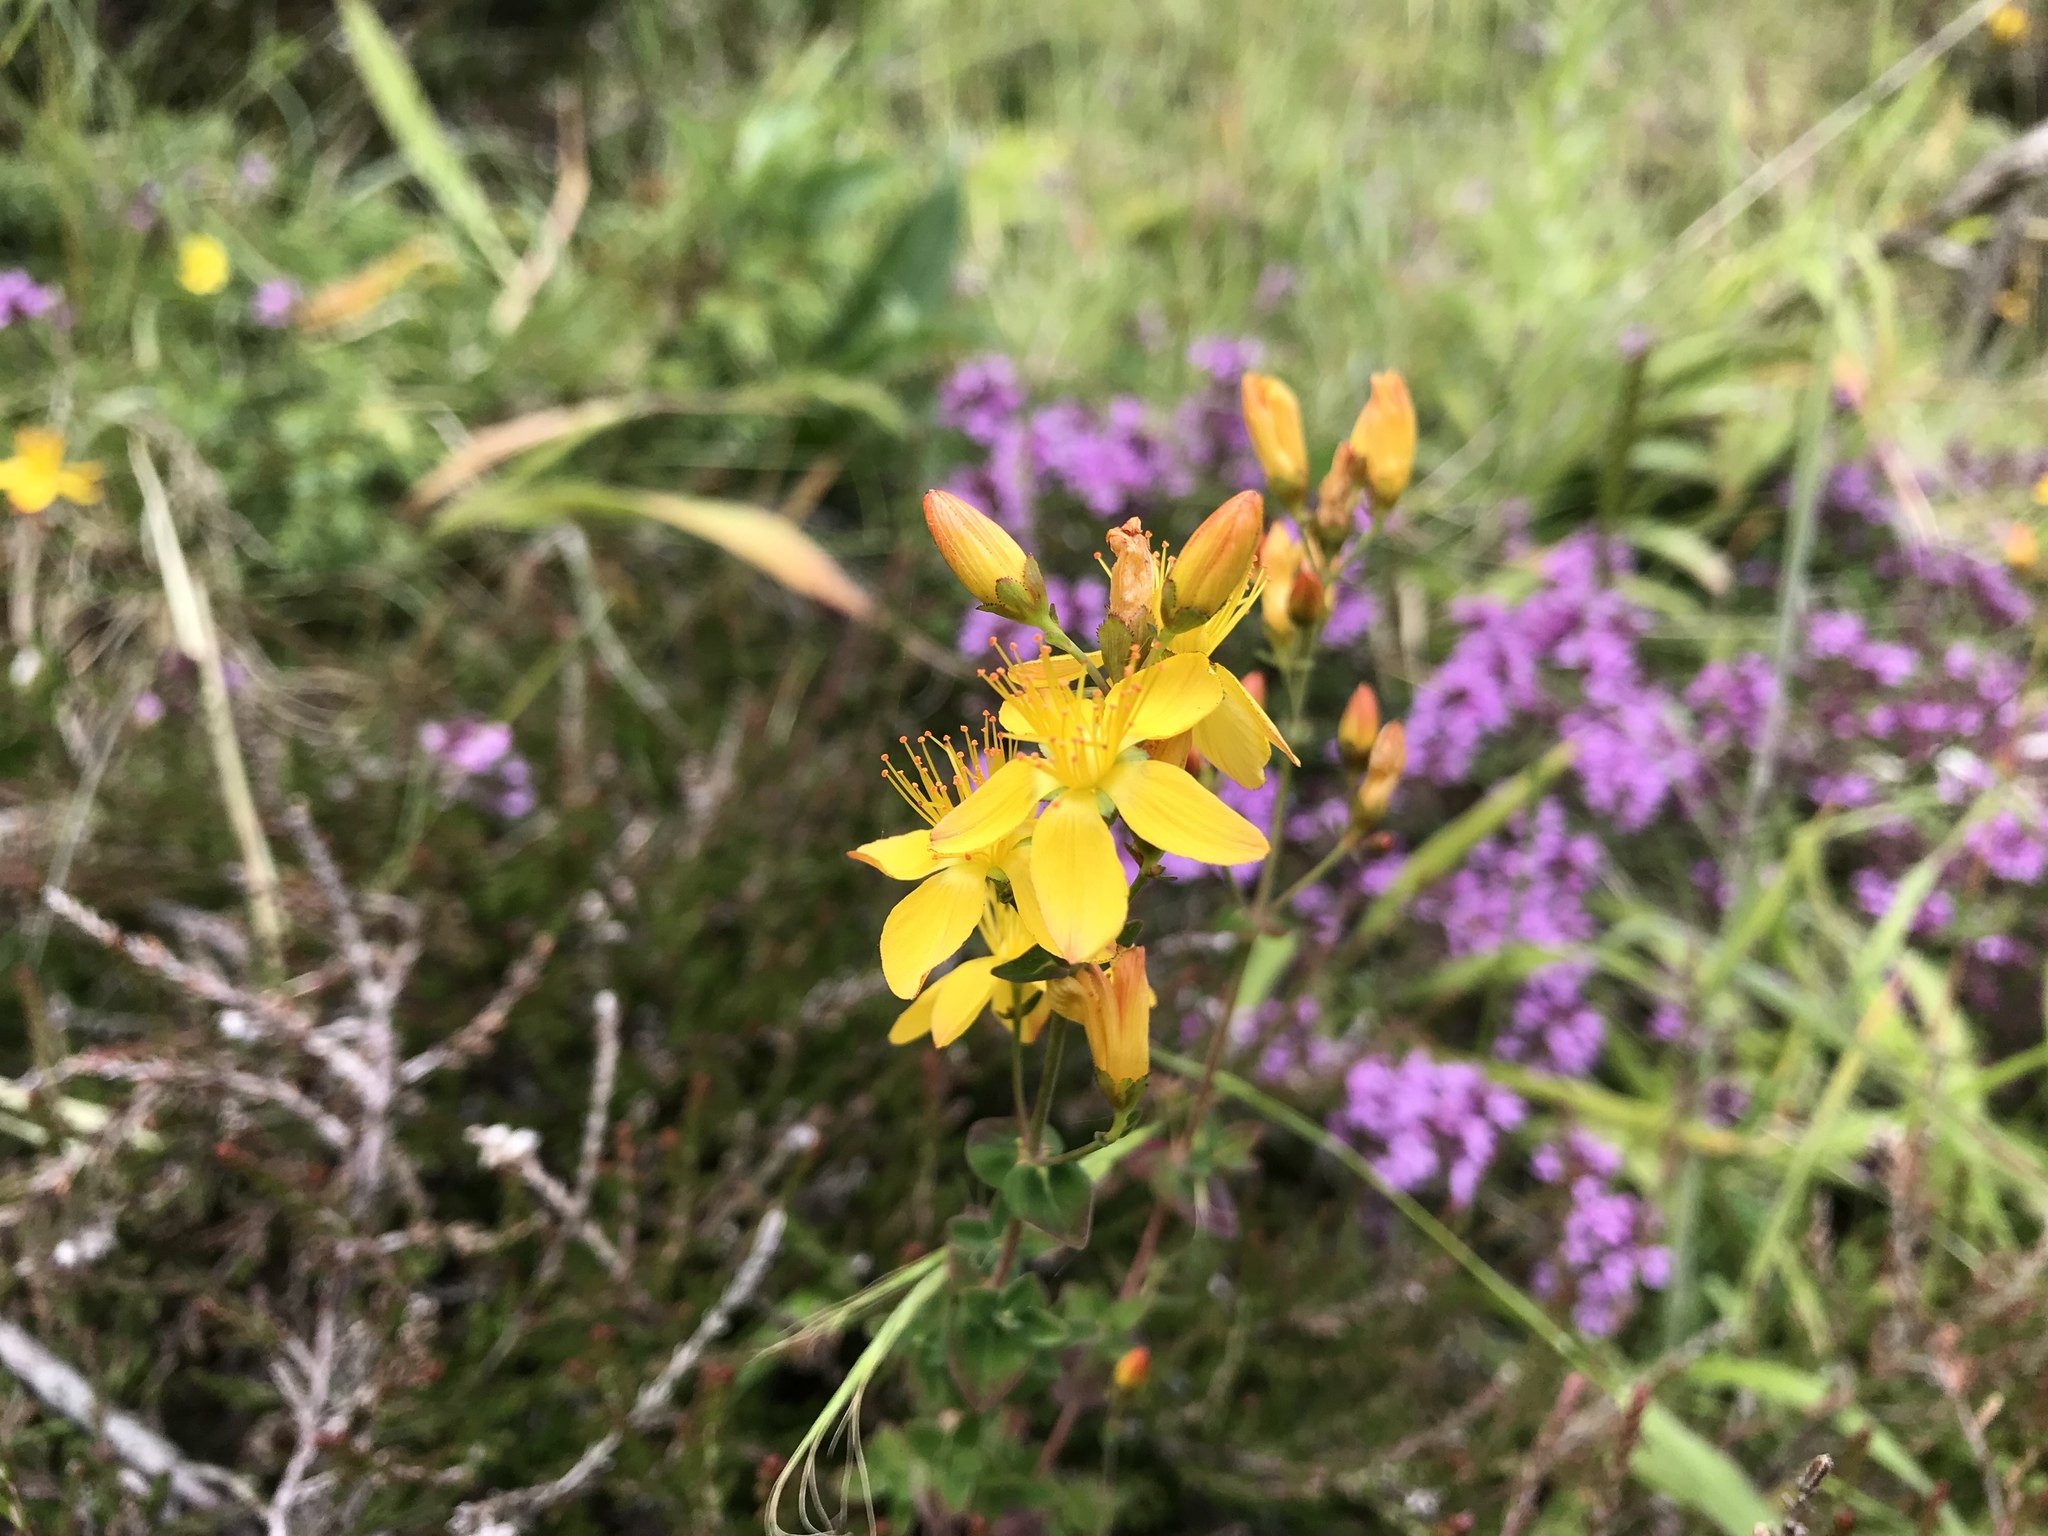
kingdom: Plantae
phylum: Tracheophyta
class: Magnoliopsida
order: Malpighiales
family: Hypericaceae
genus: Hypericum
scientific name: Hypericum pulchrum
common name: Slender st. john's-wort
